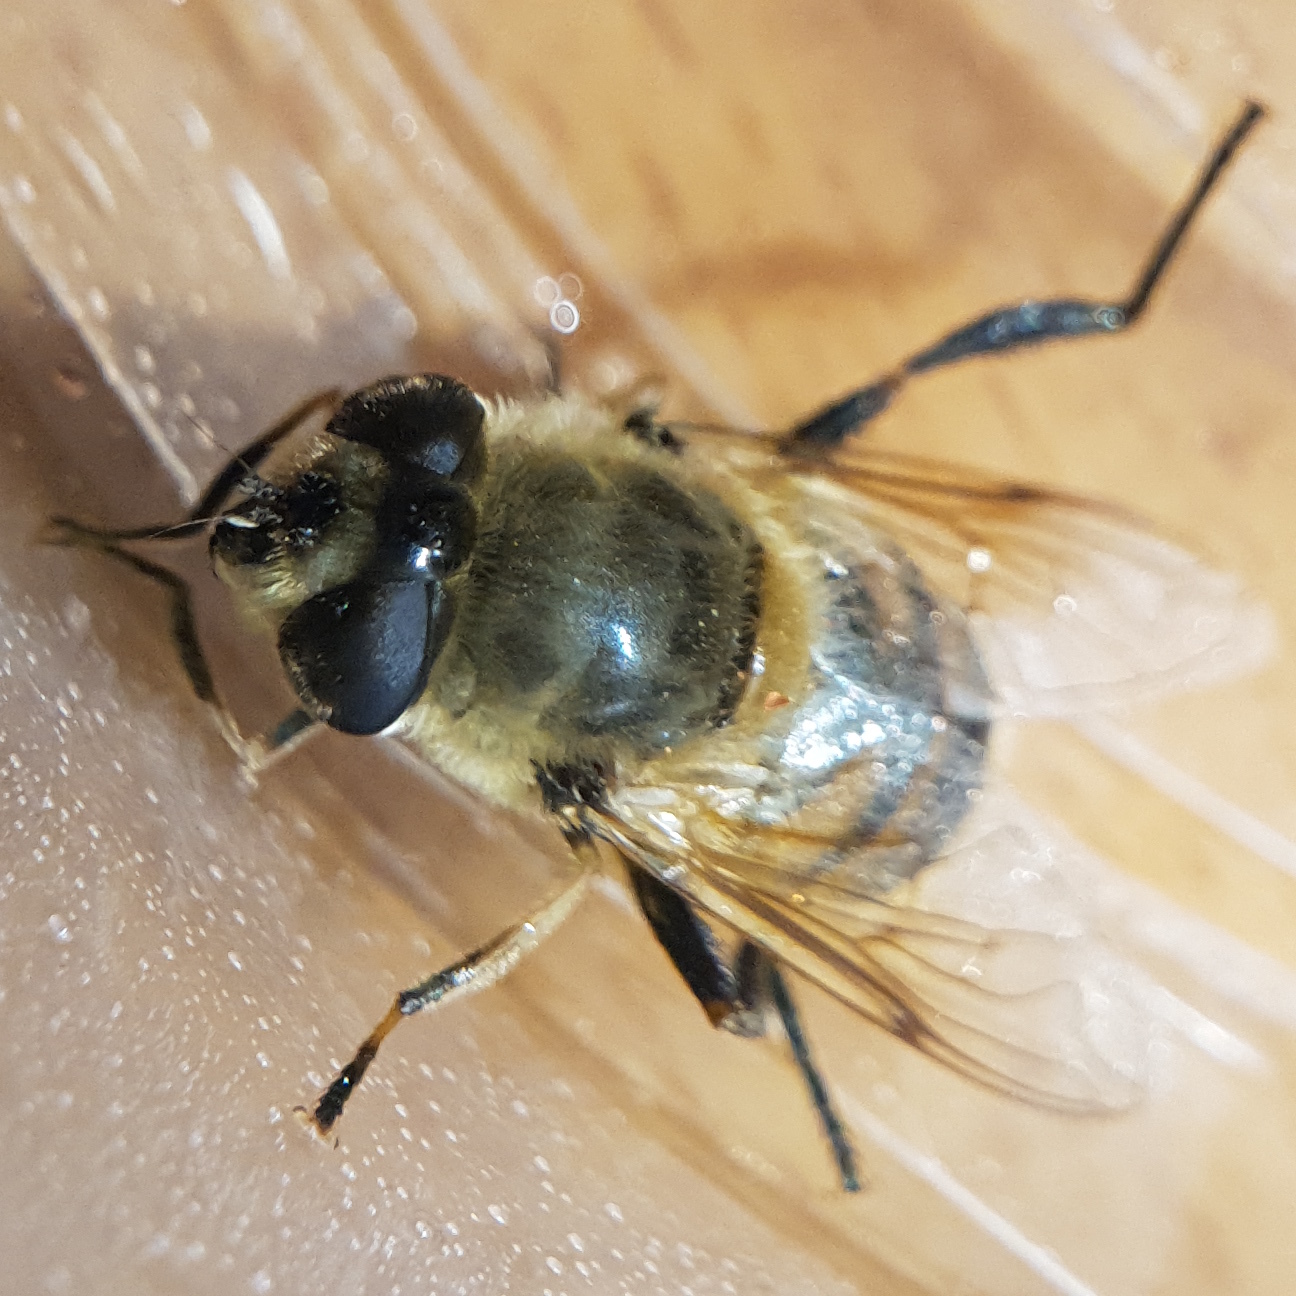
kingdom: Animalia
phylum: Arthropoda
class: Insecta
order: Diptera
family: Syrphidae
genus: Eristalis
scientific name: Eristalis tenax
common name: Drone fly
